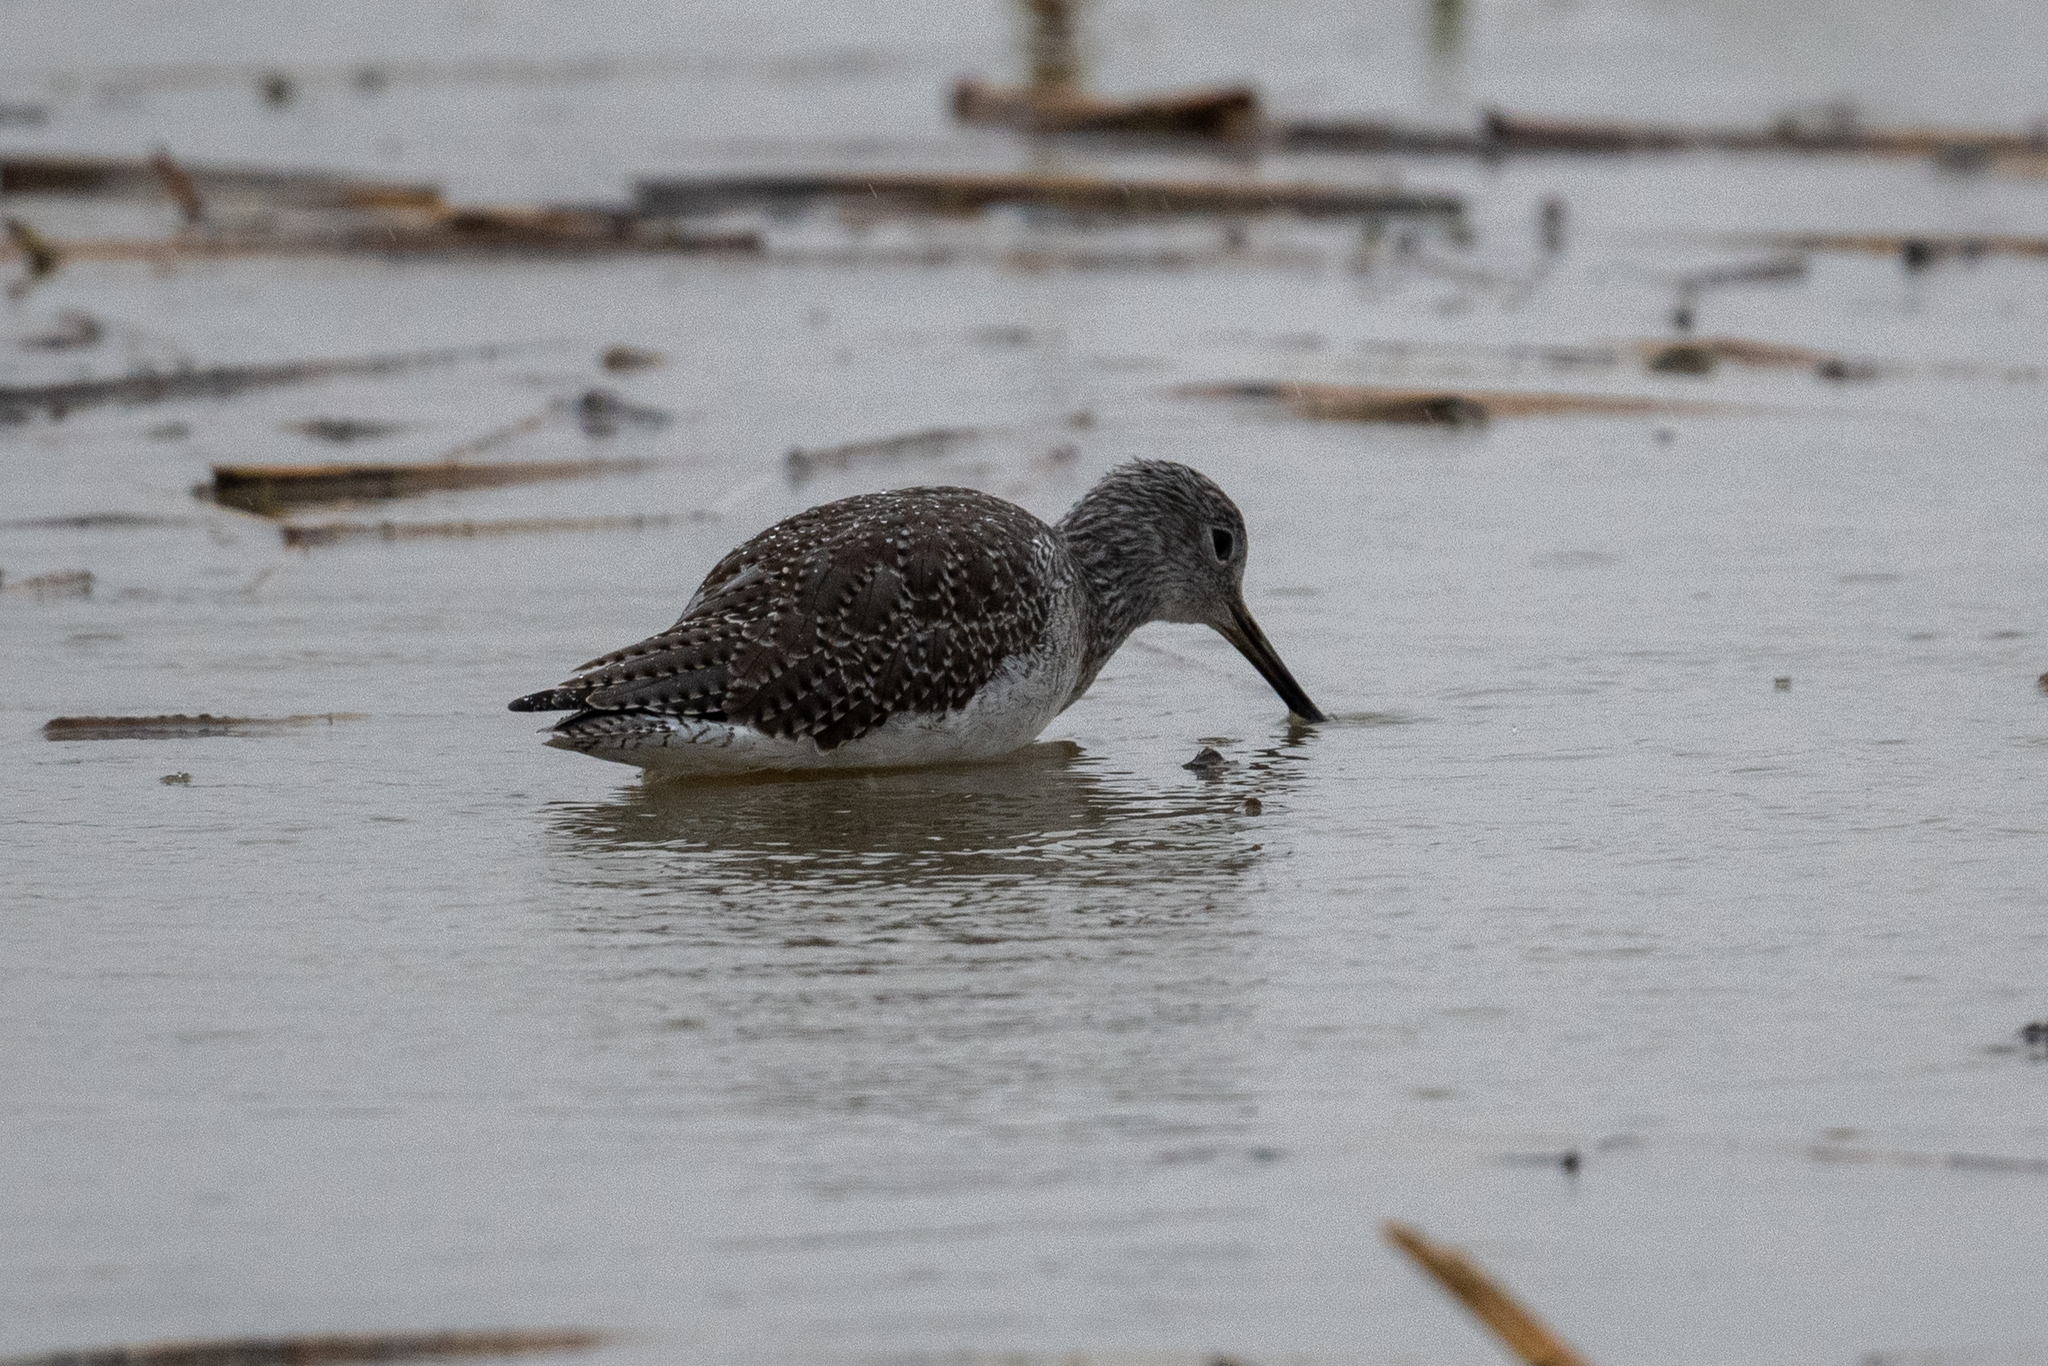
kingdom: Animalia
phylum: Chordata
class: Aves
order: Charadriiformes
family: Scolopacidae
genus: Tringa
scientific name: Tringa melanoleuca
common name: Greater yellowlegs
